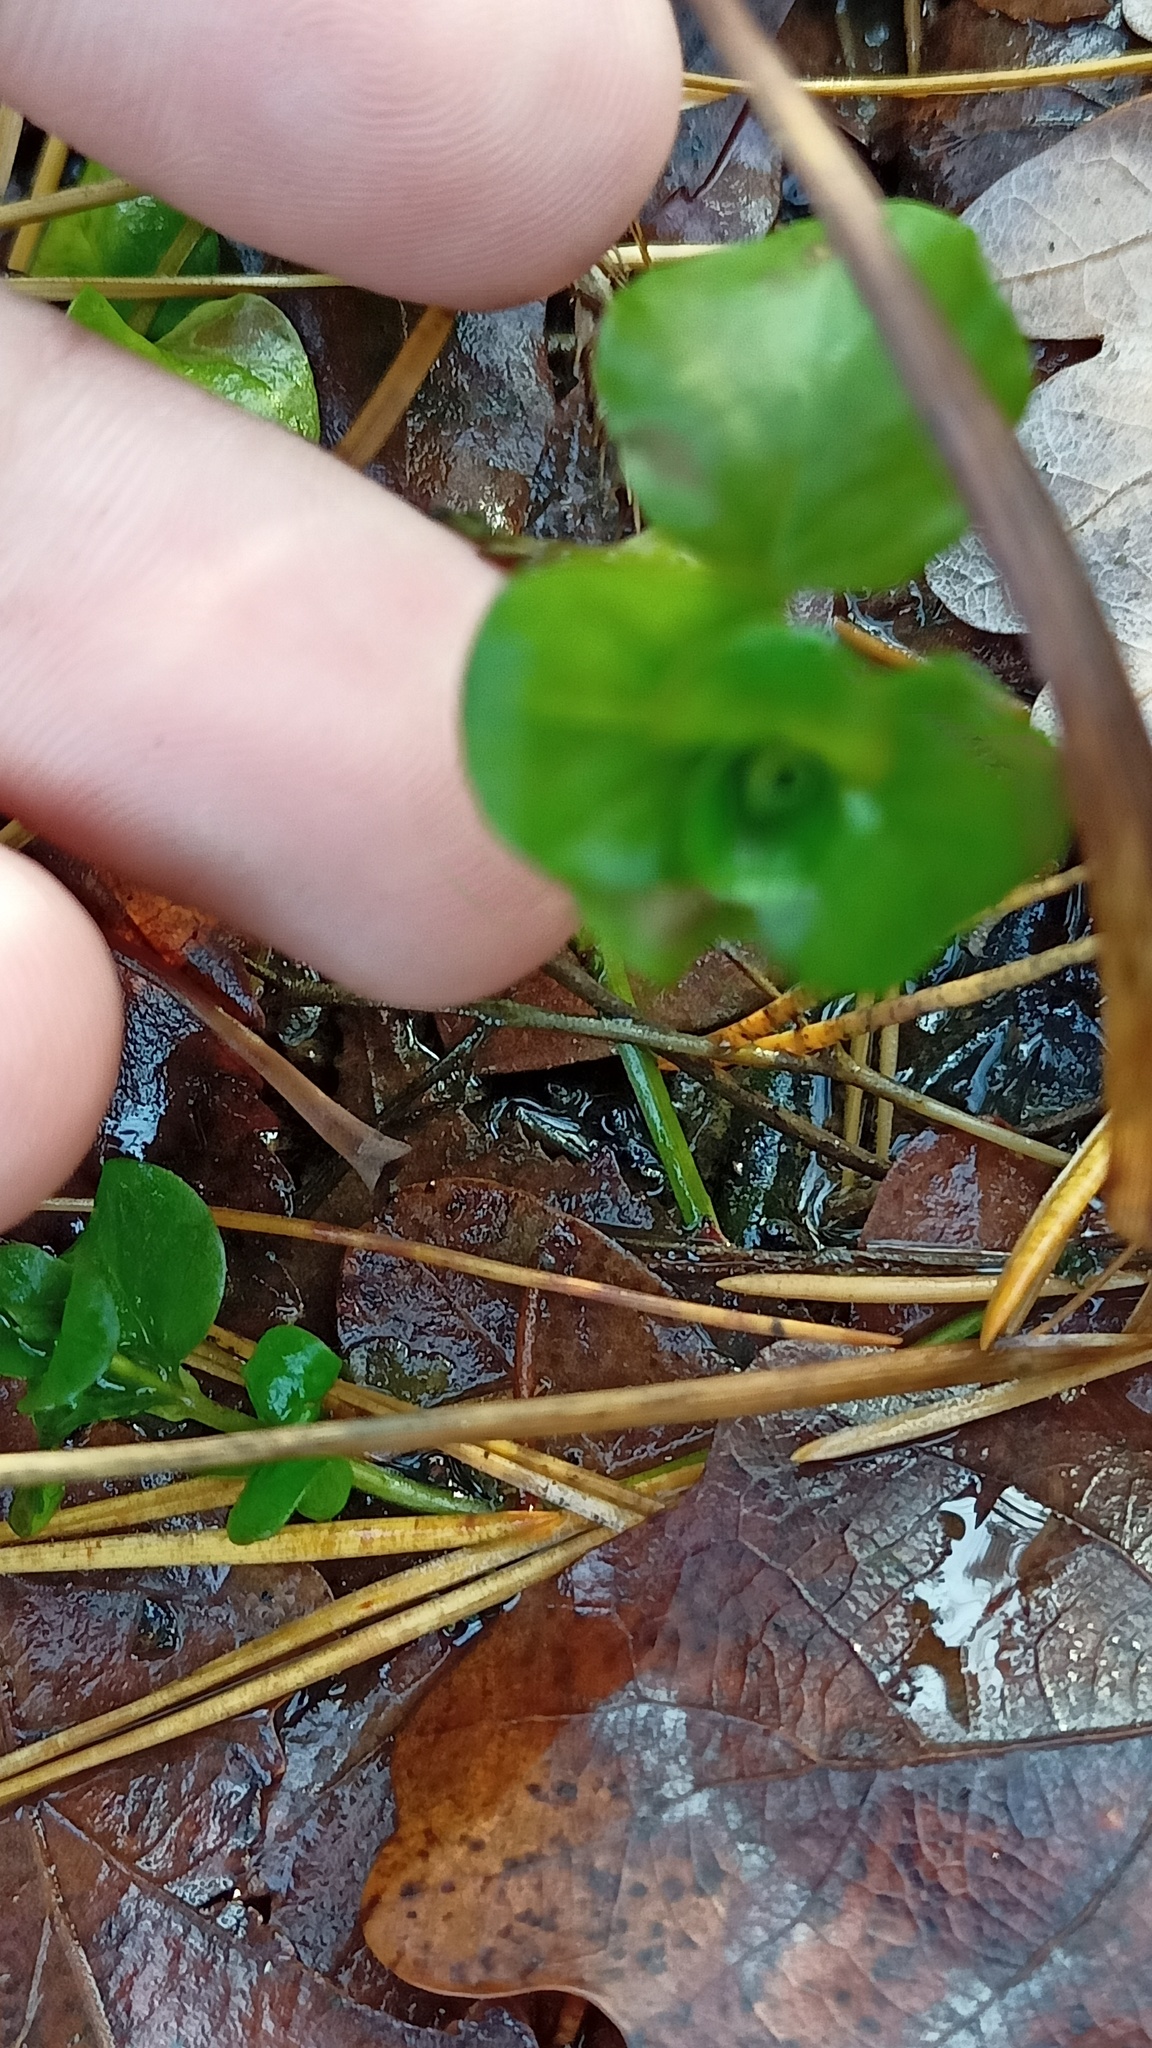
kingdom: Plantae
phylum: Tracheophyta
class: Magnoliopsida
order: Ericales
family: Primulaceae
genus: Lysimachia
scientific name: Lysimachia nummularia
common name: Moneywort
